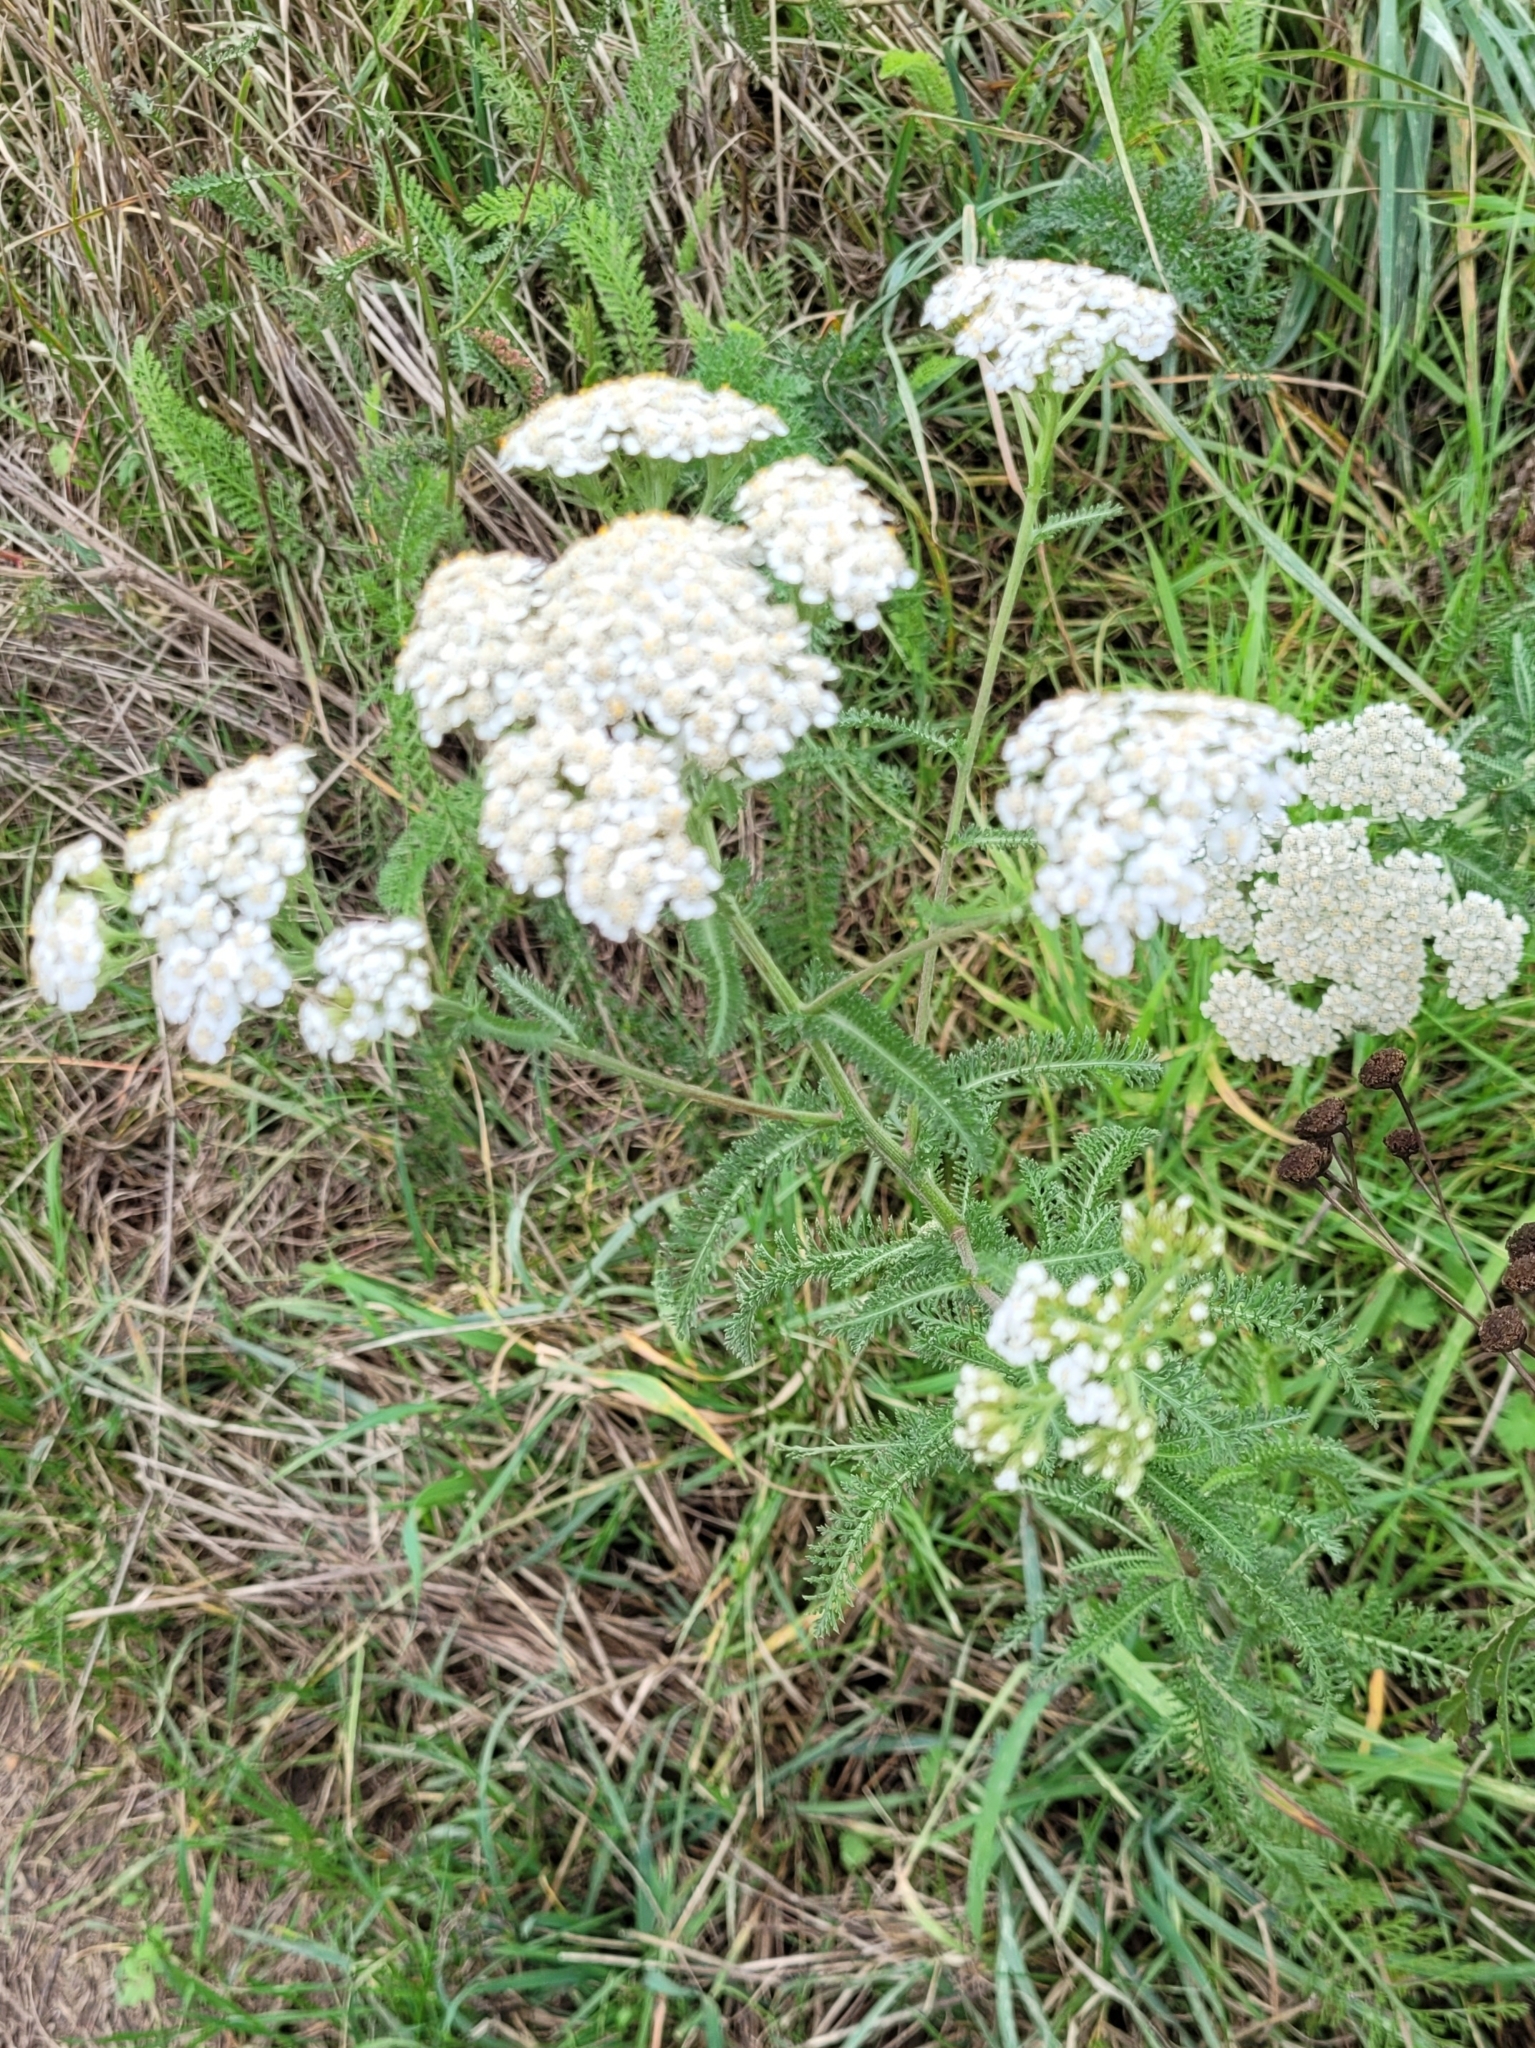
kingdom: Plantae
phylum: Tracheophyta
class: Magnoliopsida
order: Asterales
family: Asteraceae
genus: Achillea
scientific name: Achillea
